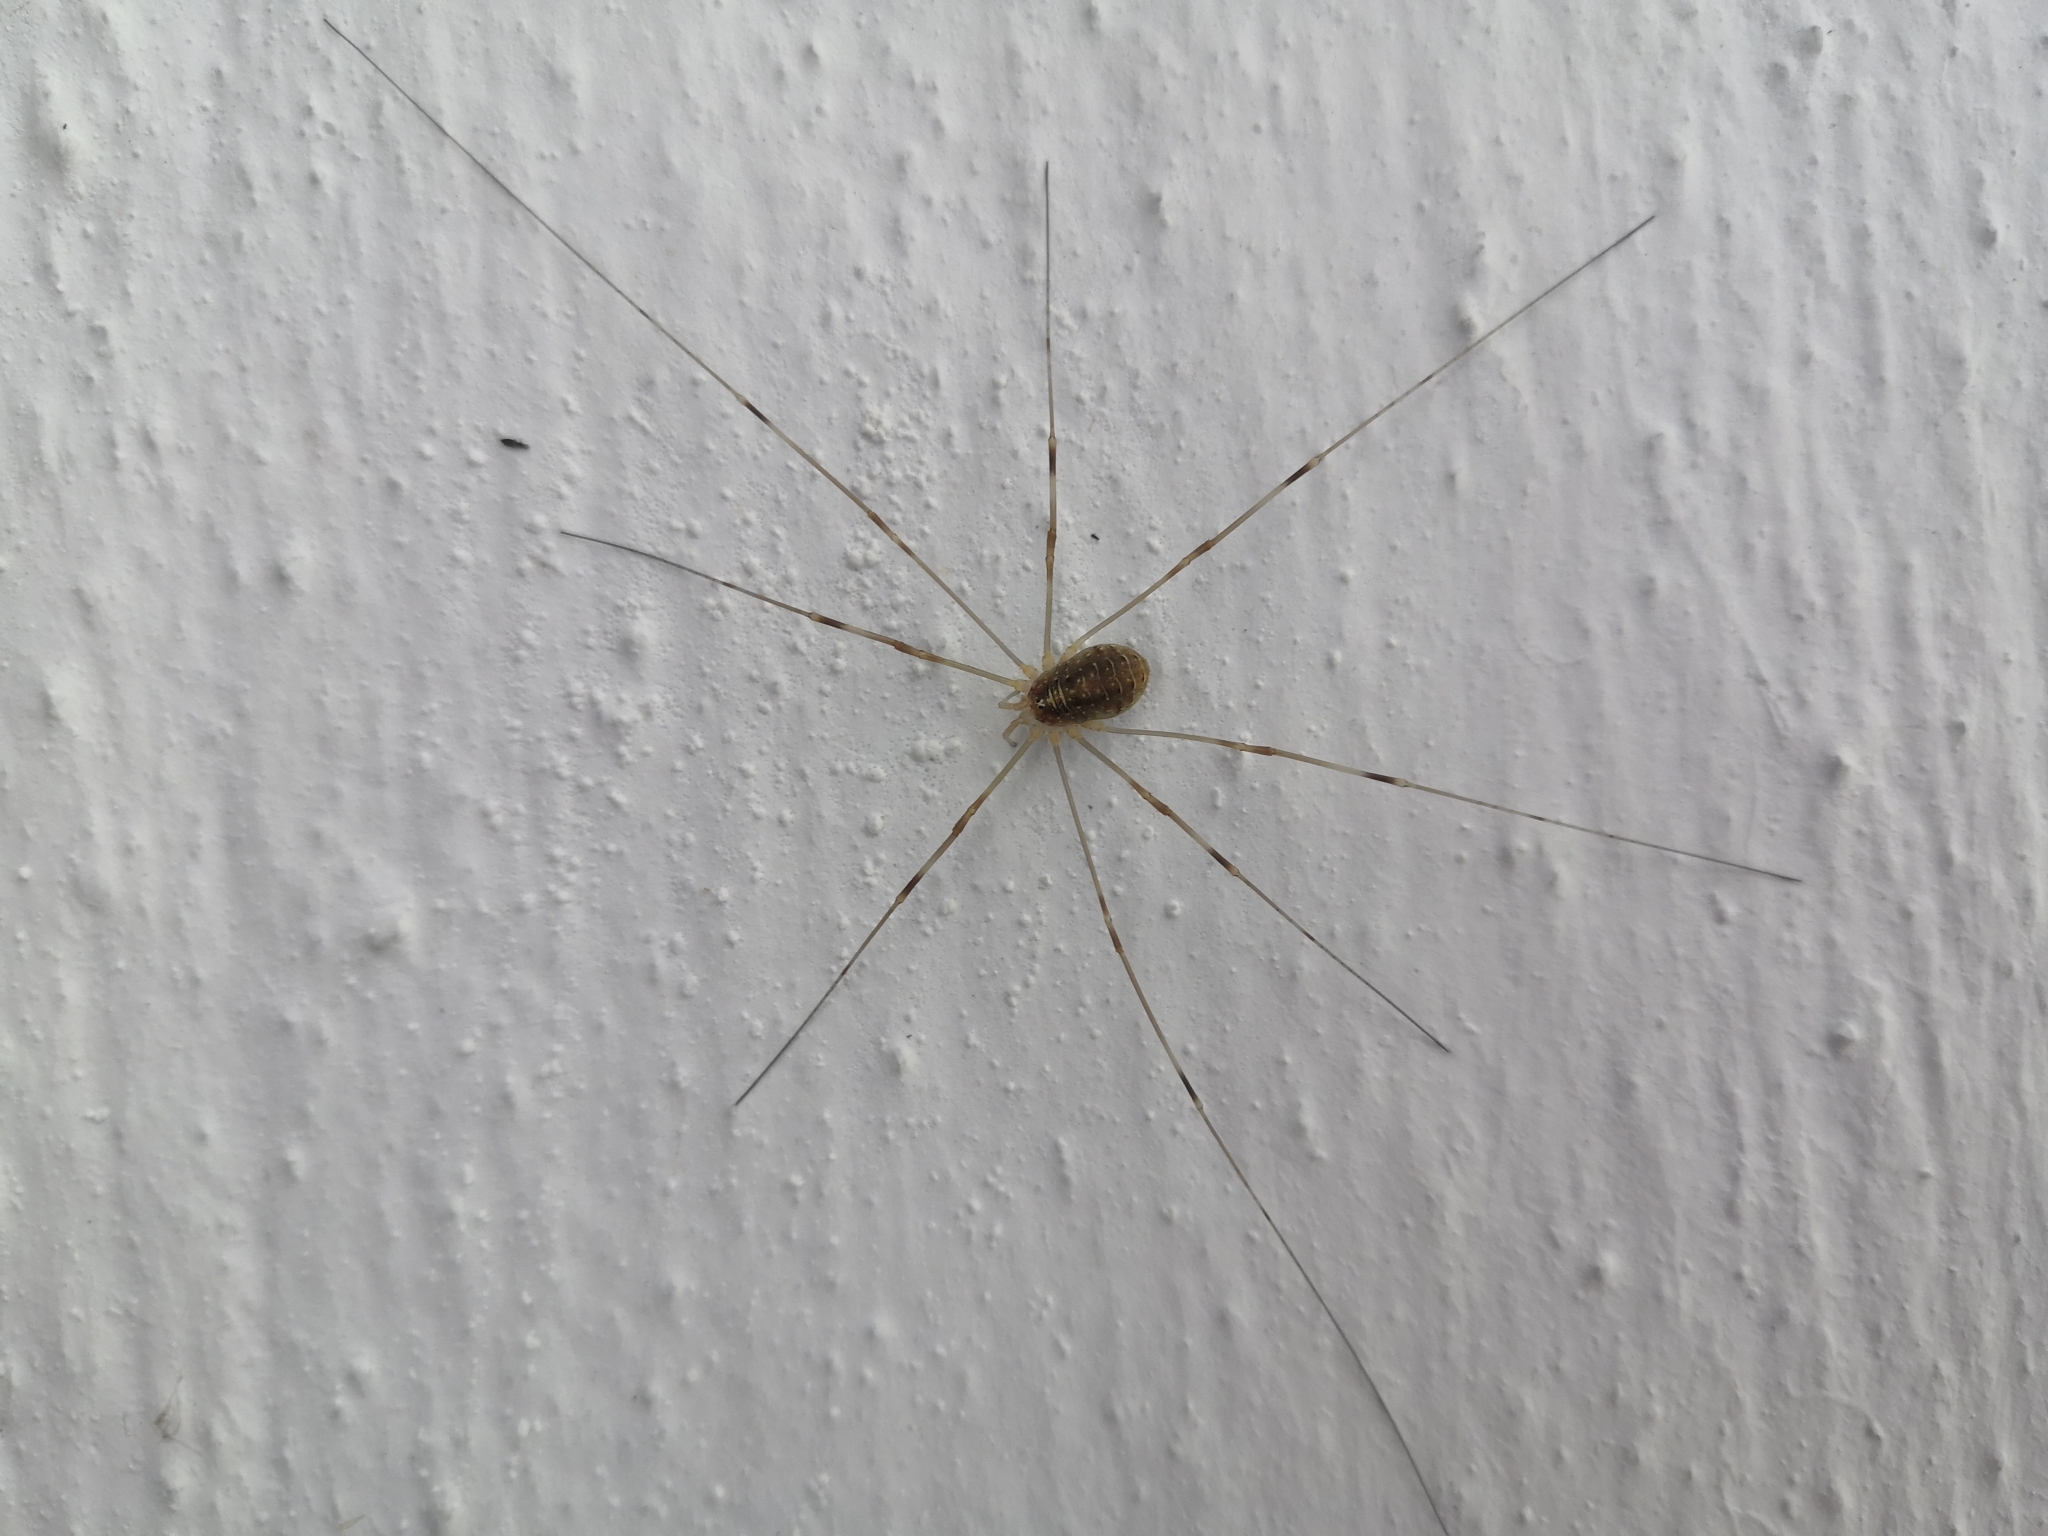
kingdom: Animalia
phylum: Arthropoda
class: Arachnida
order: Opiliones
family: Phalangiidae
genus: Opilio
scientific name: Opilio canestrinii
